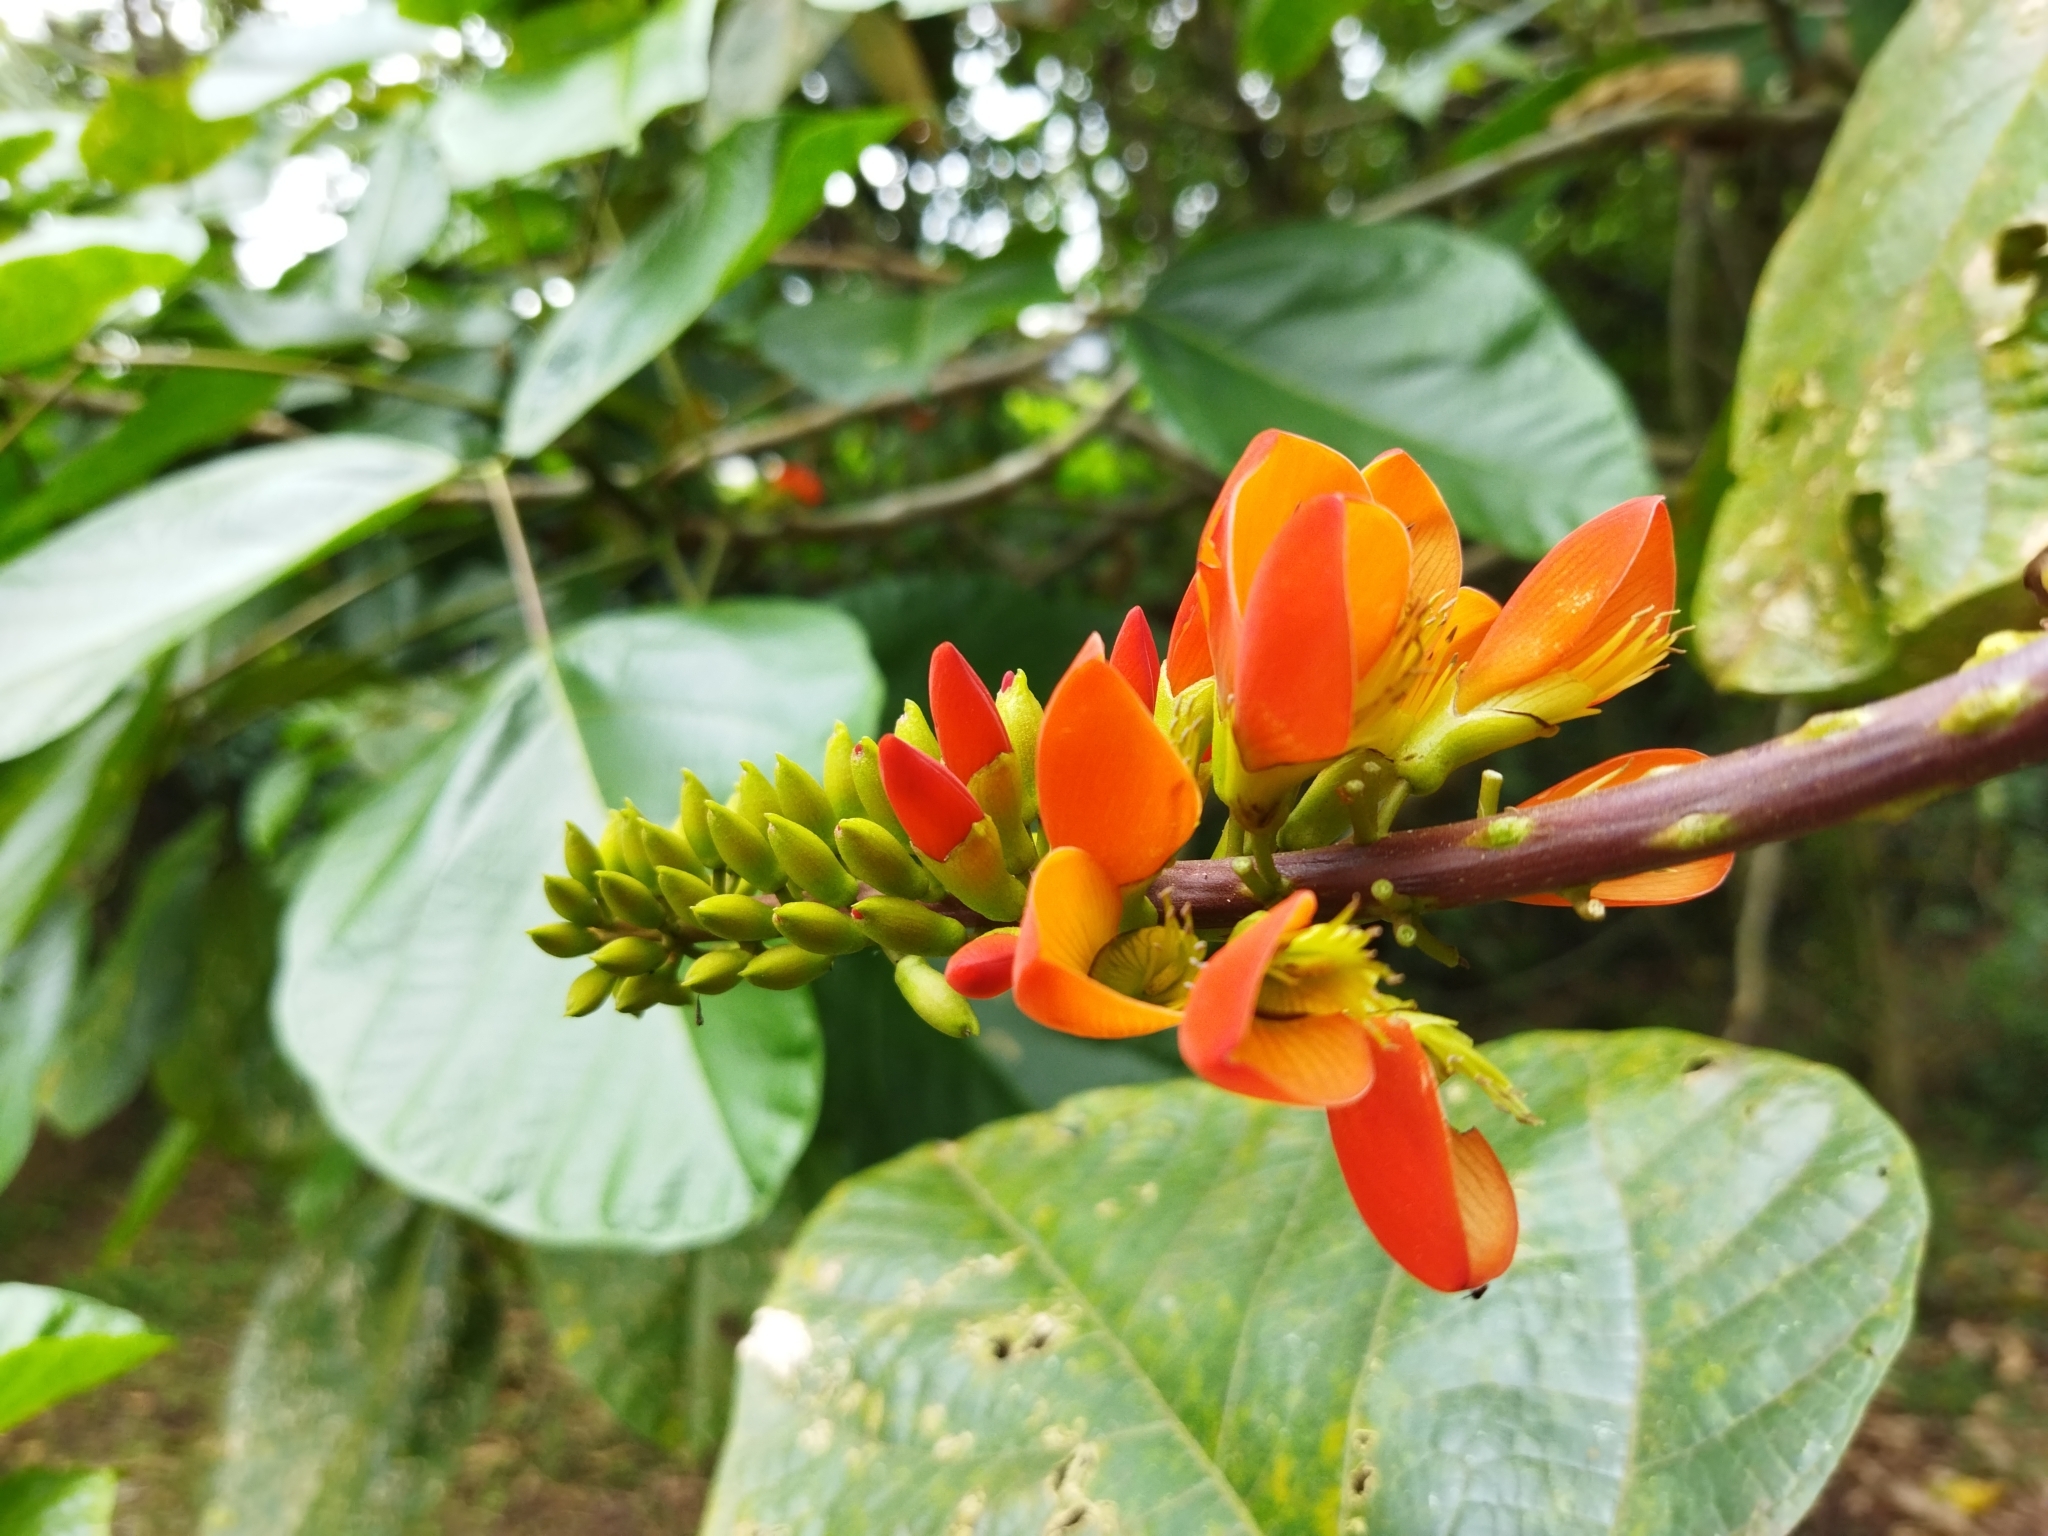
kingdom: Plantae
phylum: Tracheophyta
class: Magnoliopsida
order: Fabales
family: Fabaceae
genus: Erythrina
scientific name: Erythrina edulis
